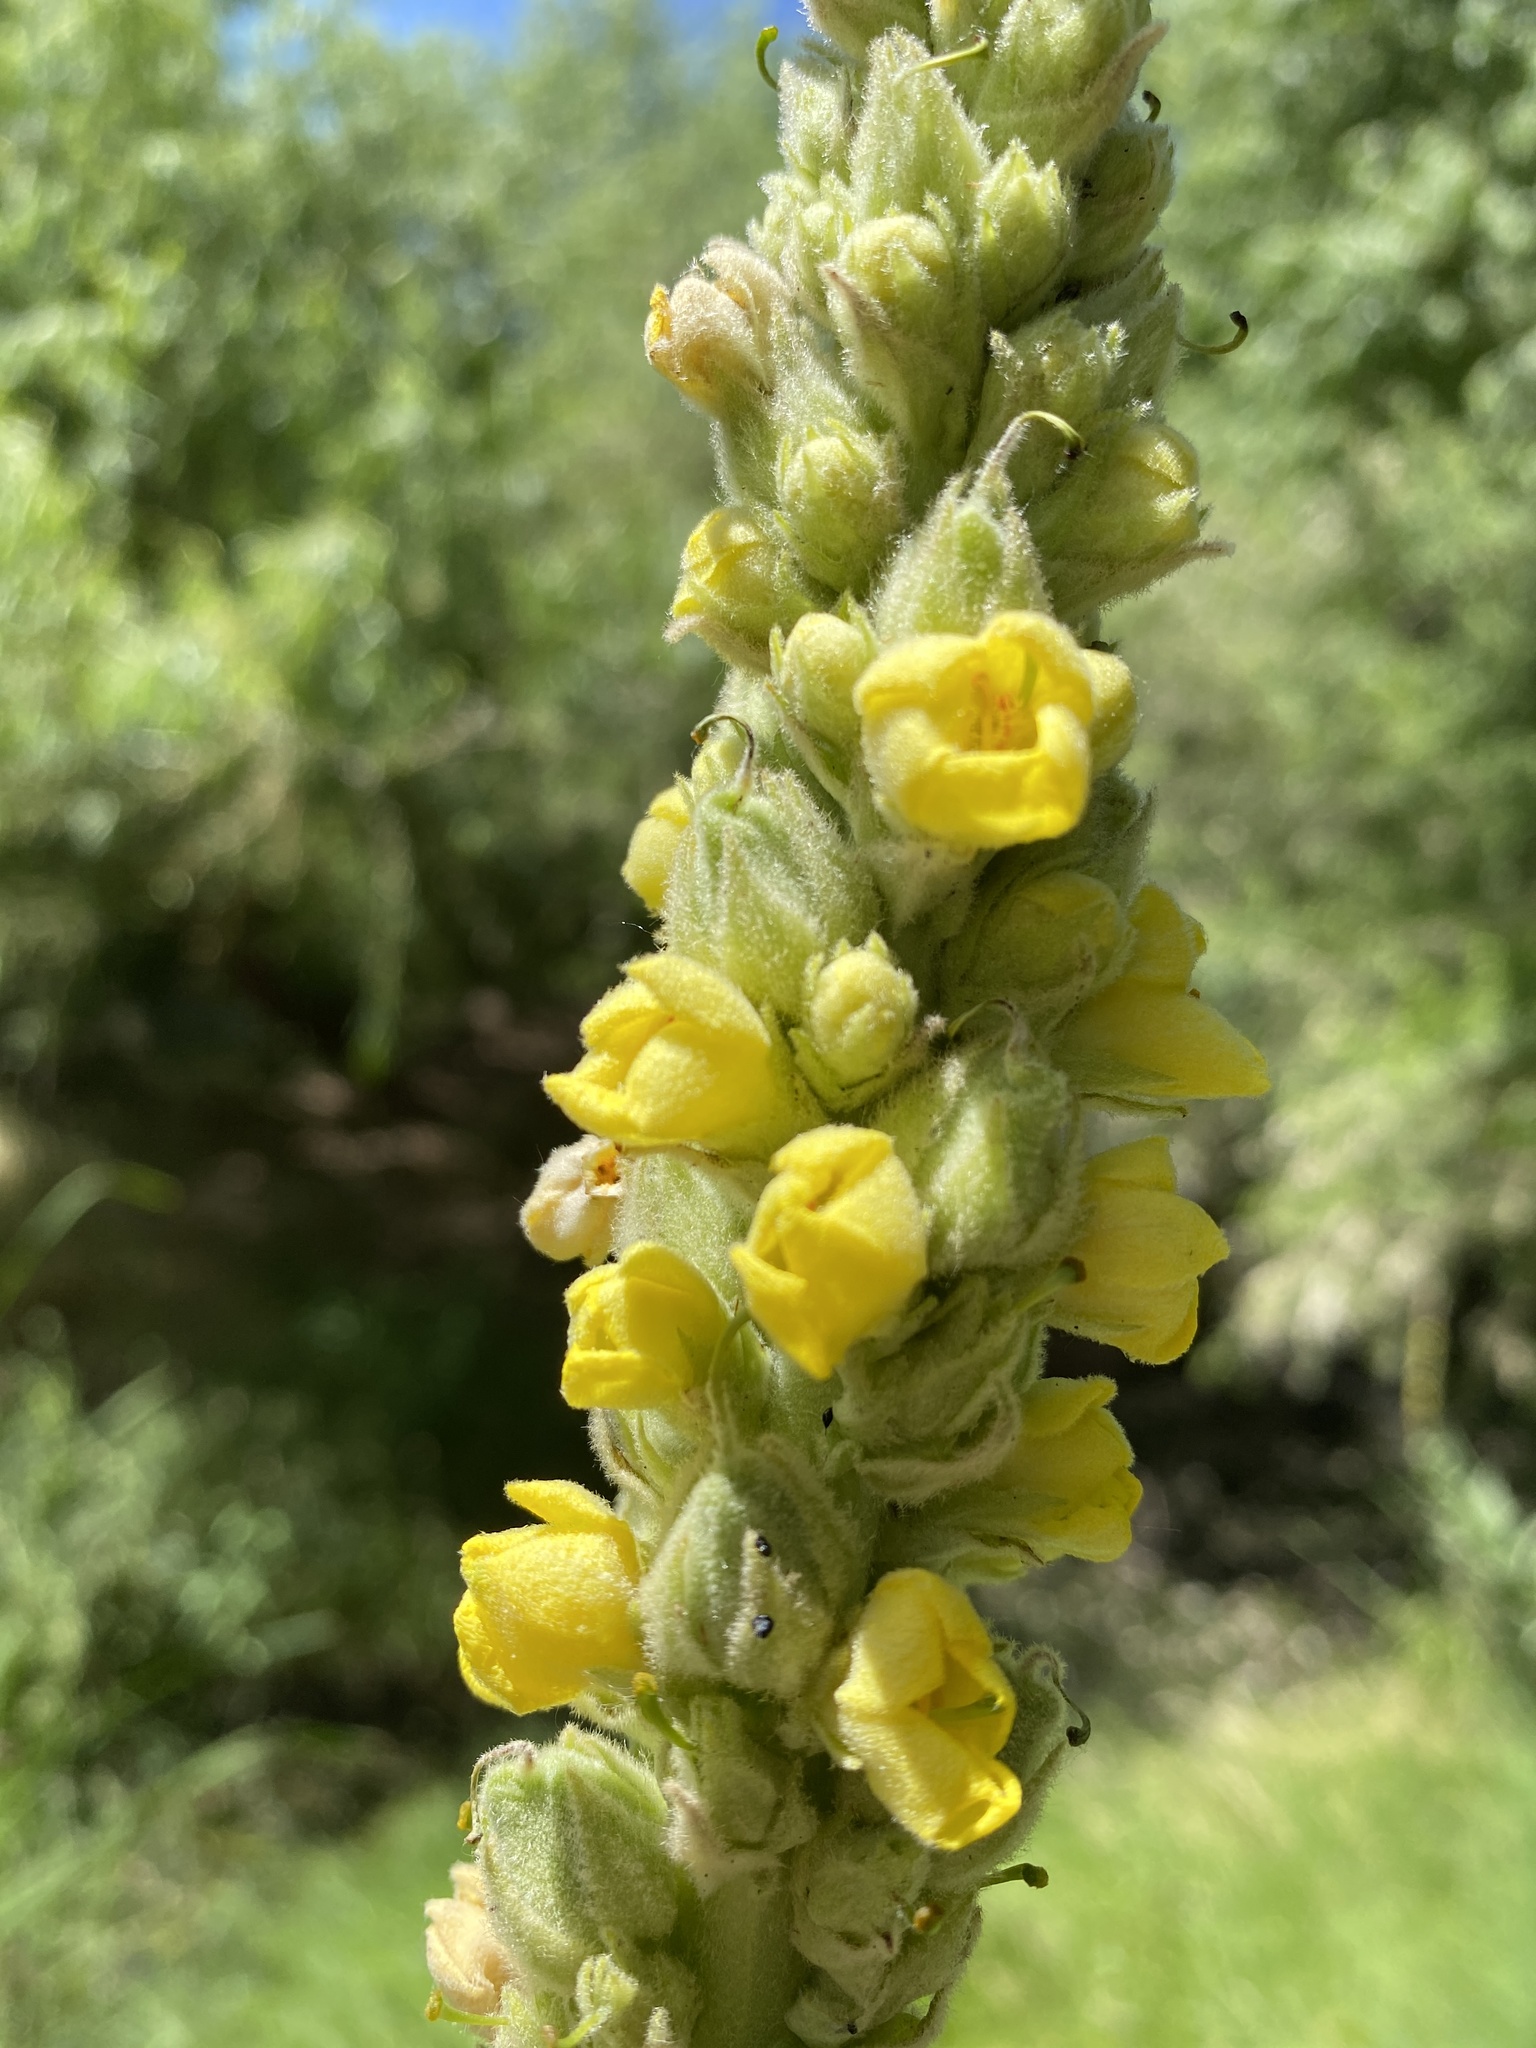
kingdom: Plantae
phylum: Tracheophyta
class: Magnoliopsida
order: Lamiales
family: Scrophulariaceae
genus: Verbascum
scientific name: Verbascum thapsus
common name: Common mullein
